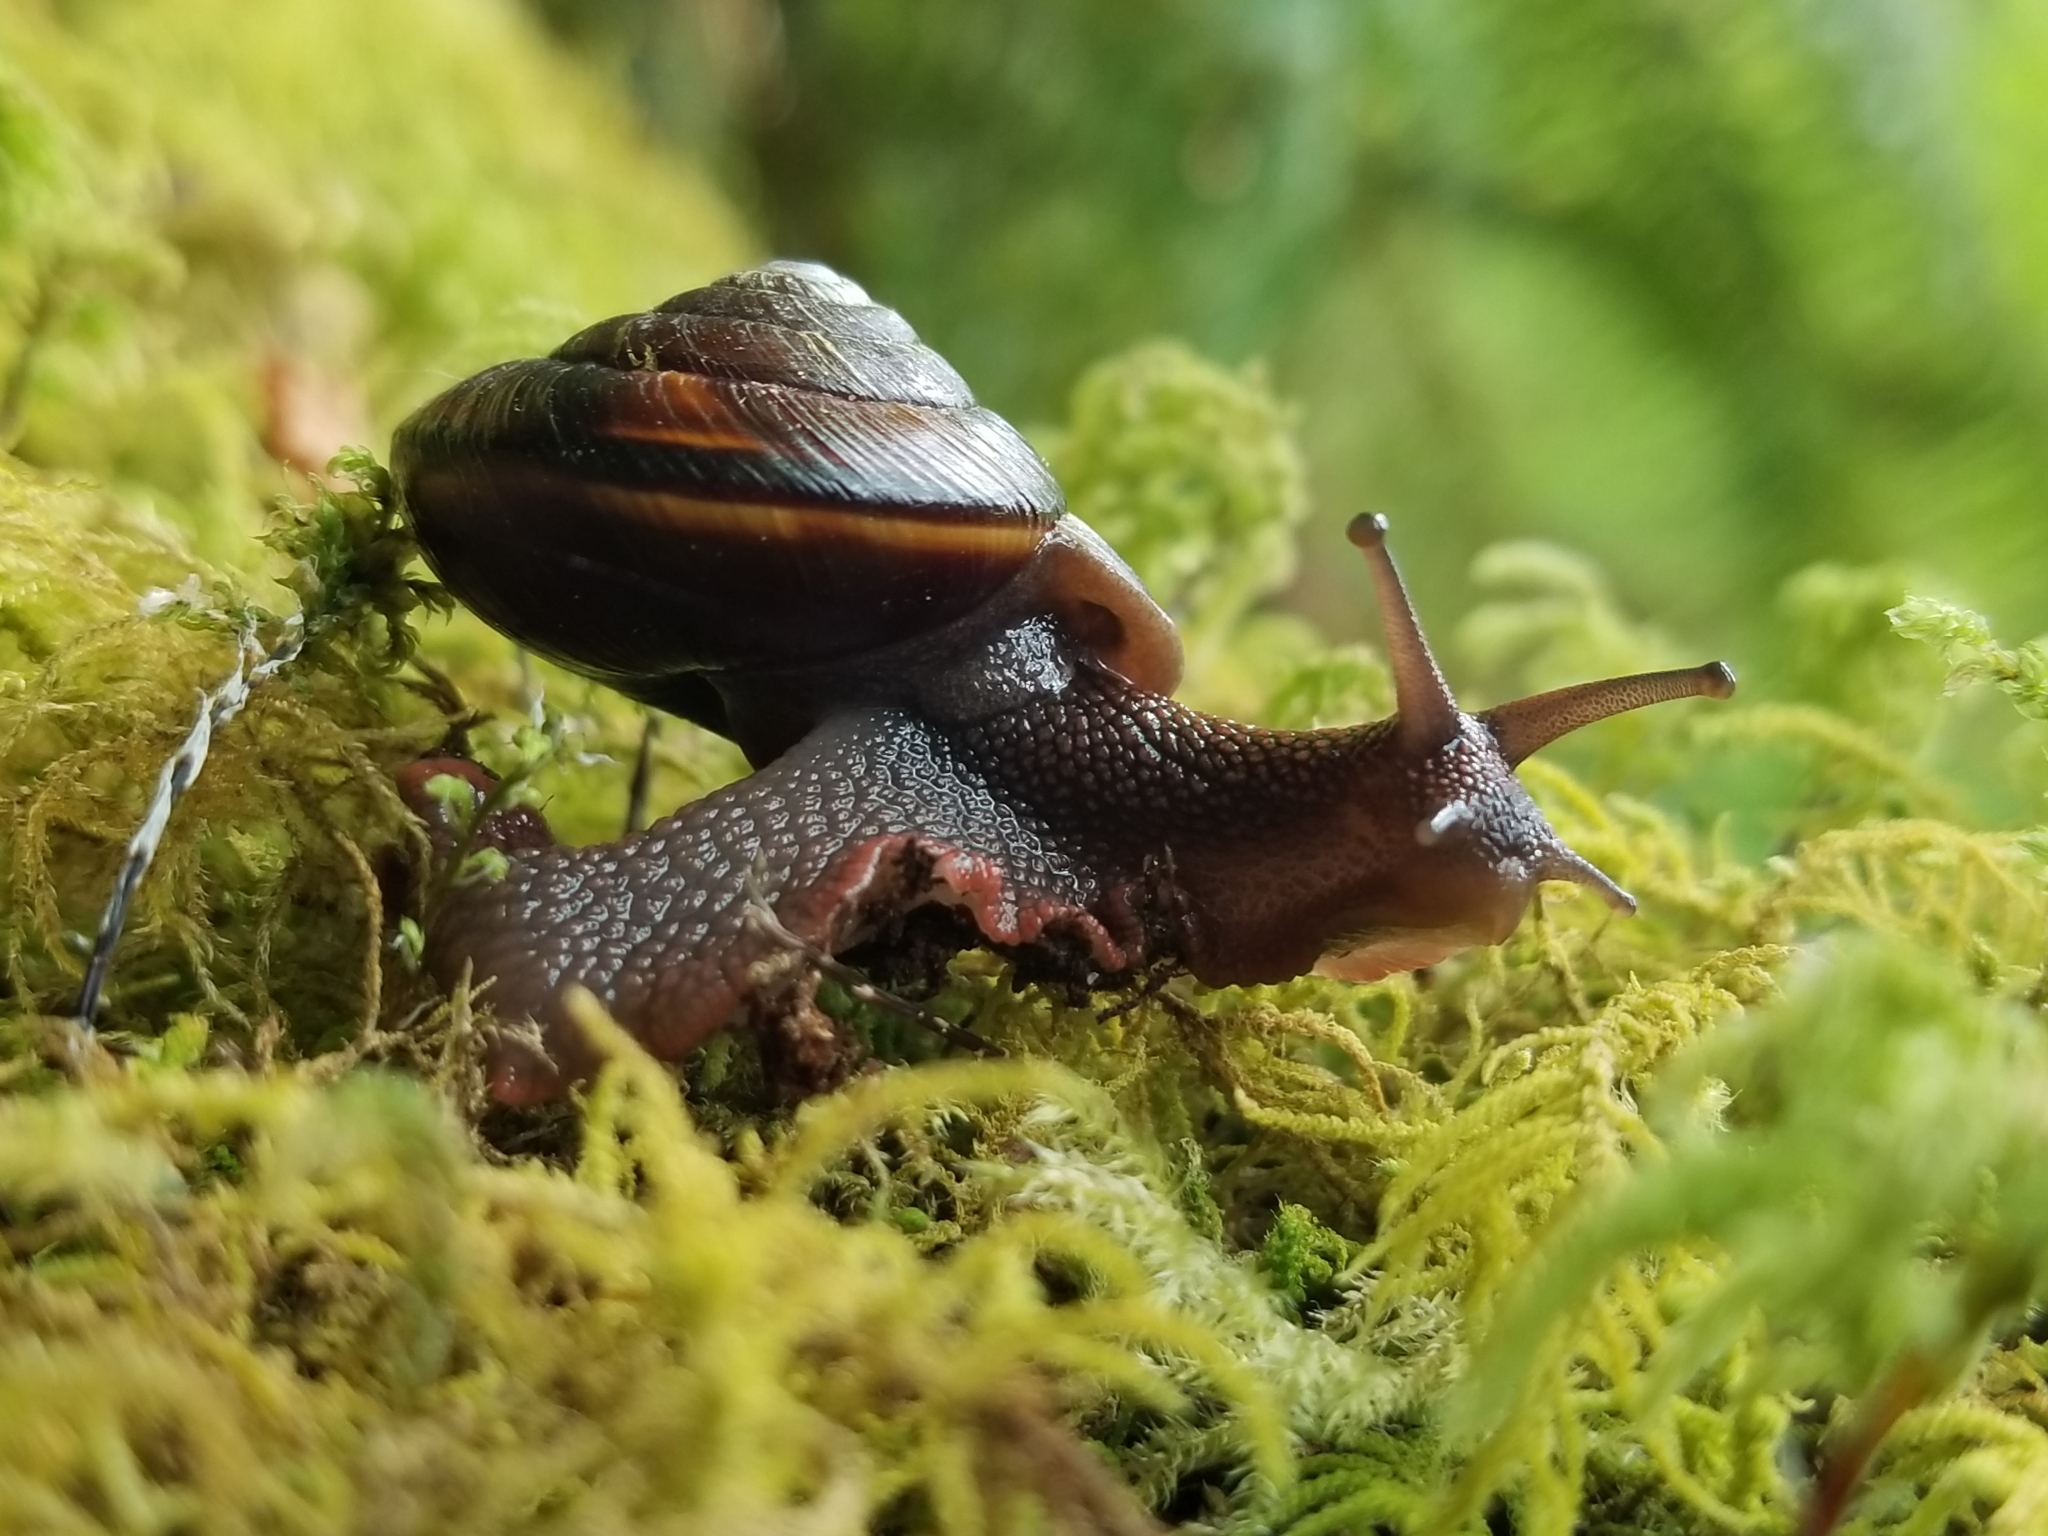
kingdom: Animalia
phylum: Mollusca
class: Gastropoda
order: Stylommatophora
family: Xanthonychidae
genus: Monadenia
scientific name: Monadenia fidelis
